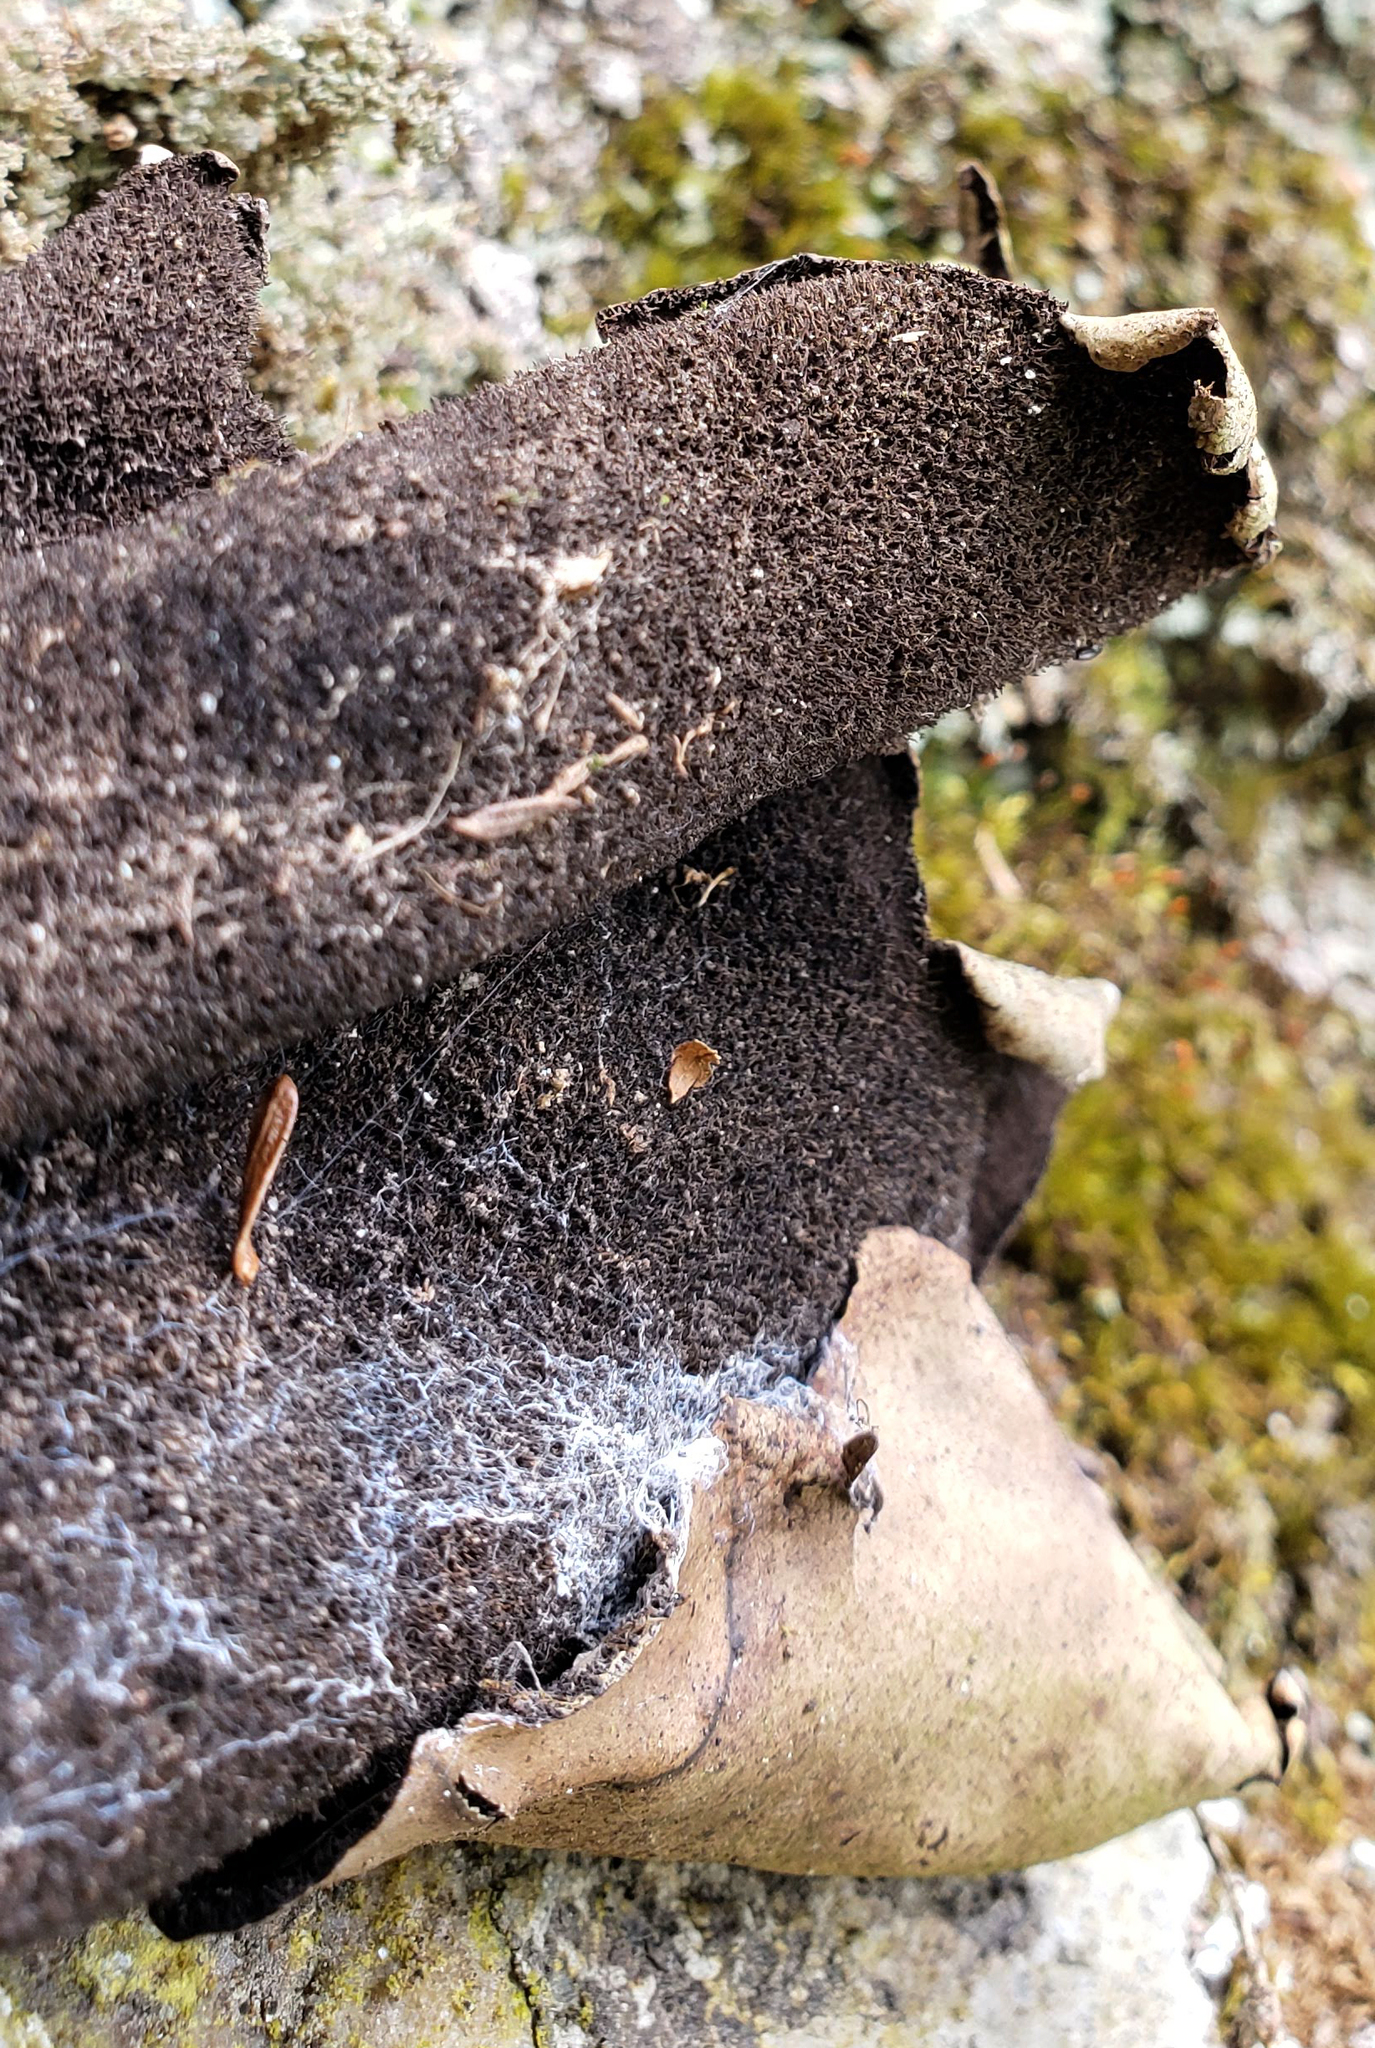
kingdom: Fungi
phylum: Ascomycota
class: Lecanoromycetes
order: Umbilicariales
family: Umbilicariaceae
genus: Umbilicaria
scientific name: Umbilicaria mammulata
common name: Smooth rock tripe
